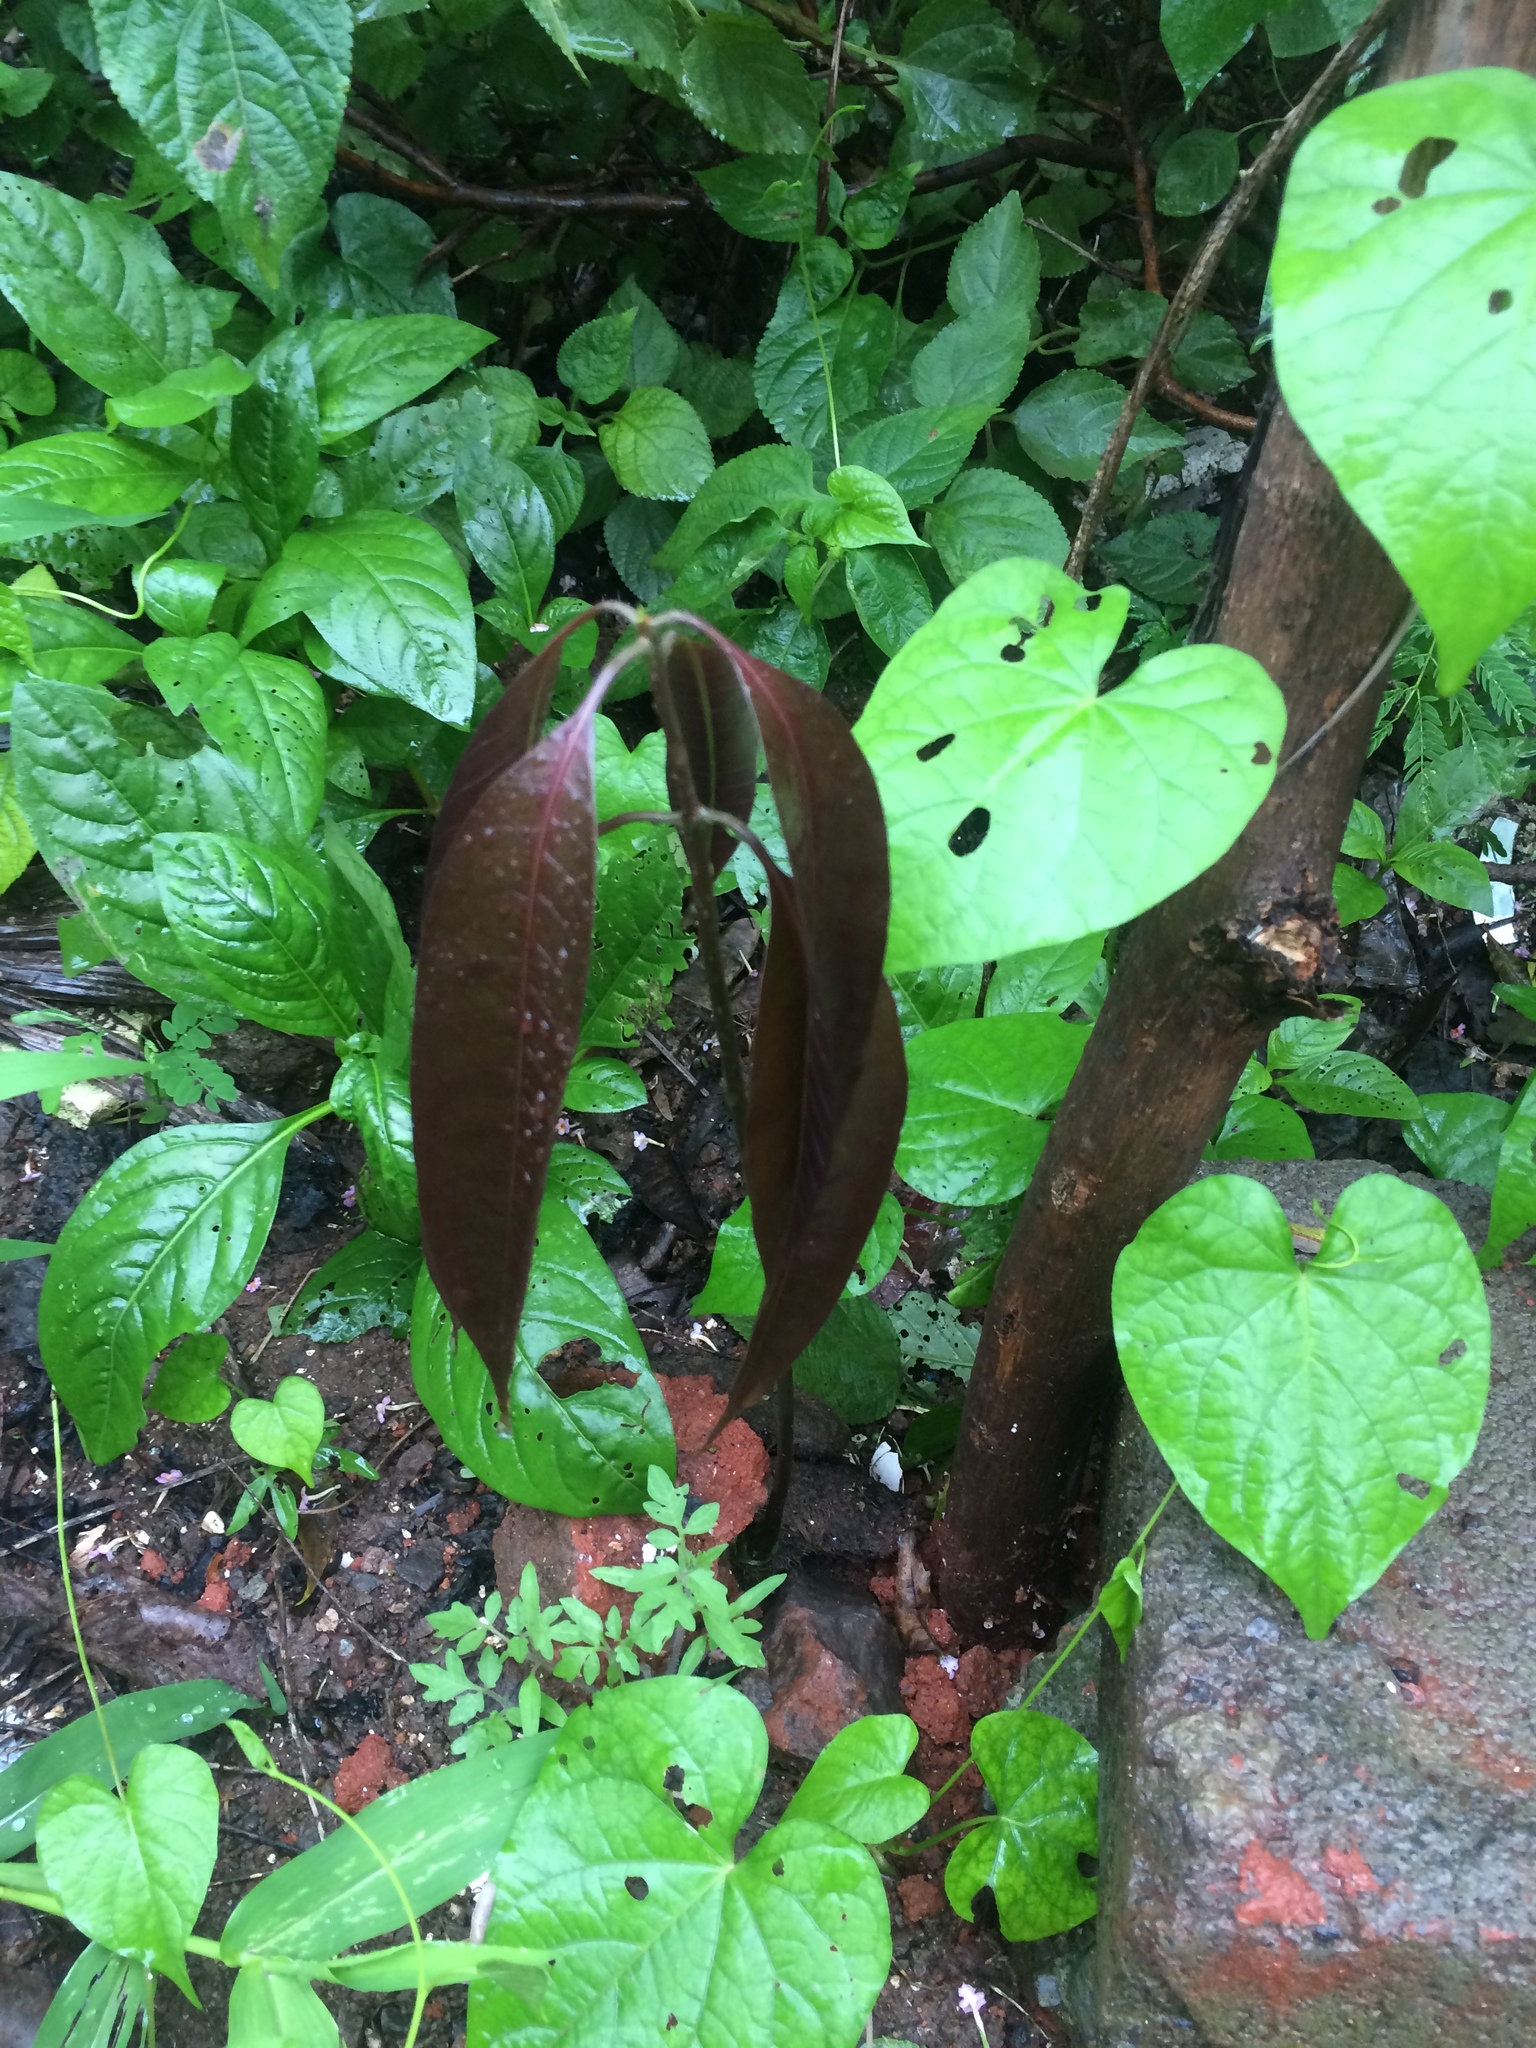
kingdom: Plantae
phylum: Tracheophyta
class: Magnoliopsida
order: Sapindales
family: Anacardiaceae
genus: Mangifera
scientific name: Mangifera indica
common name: Mango
